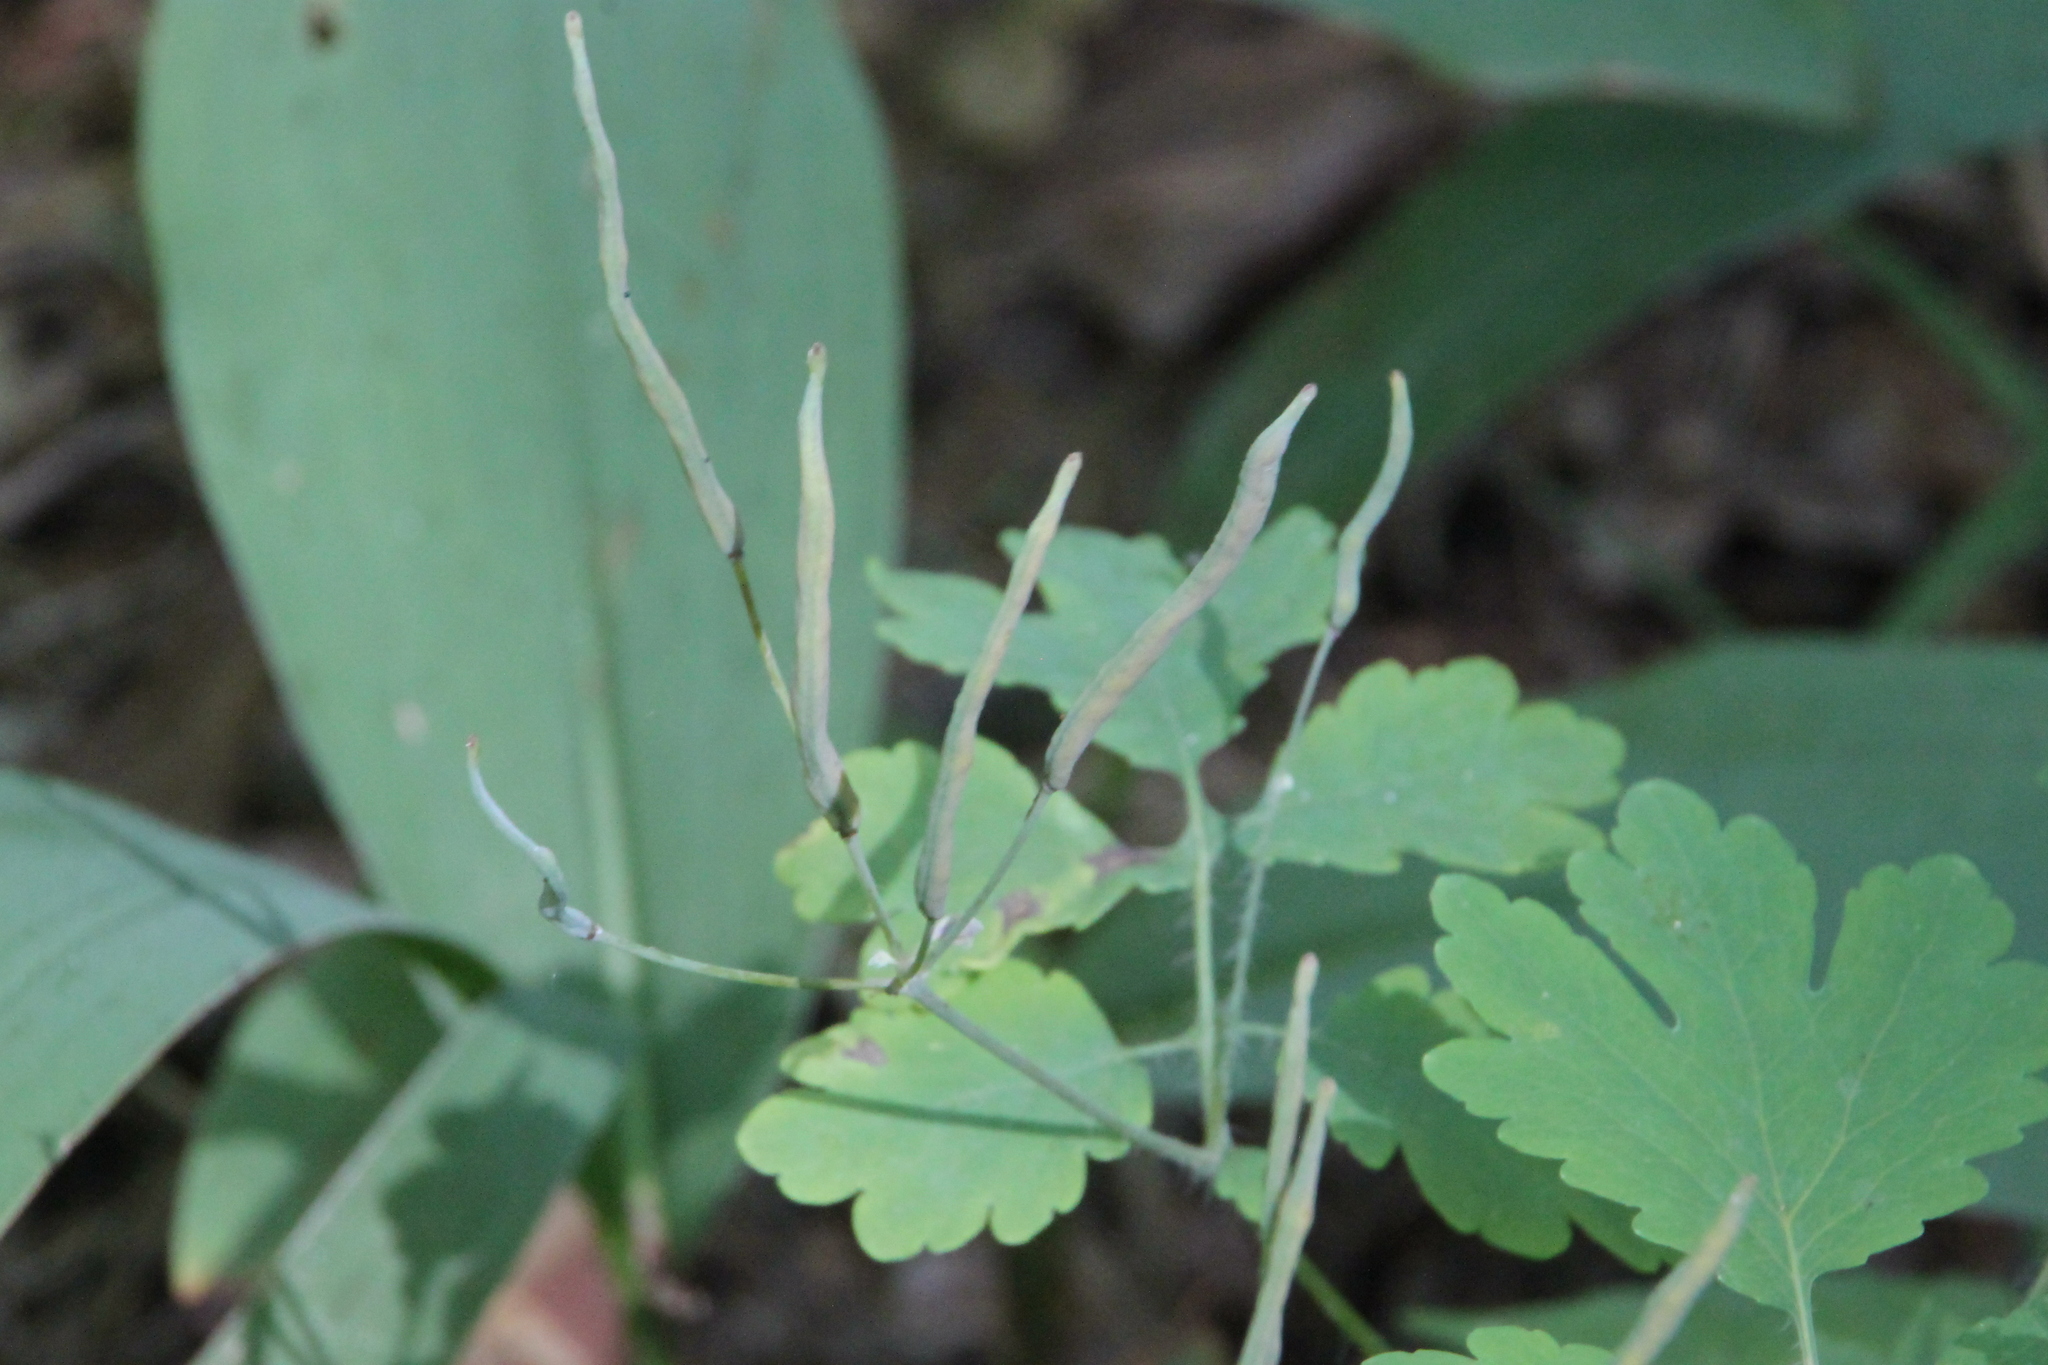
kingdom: Plantae
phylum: Tracheophyta
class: Magnoliopsida
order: Ranunculales
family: Papaveraceae
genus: Chelidonium
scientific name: Chelidonium majus
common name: Greater celandine
